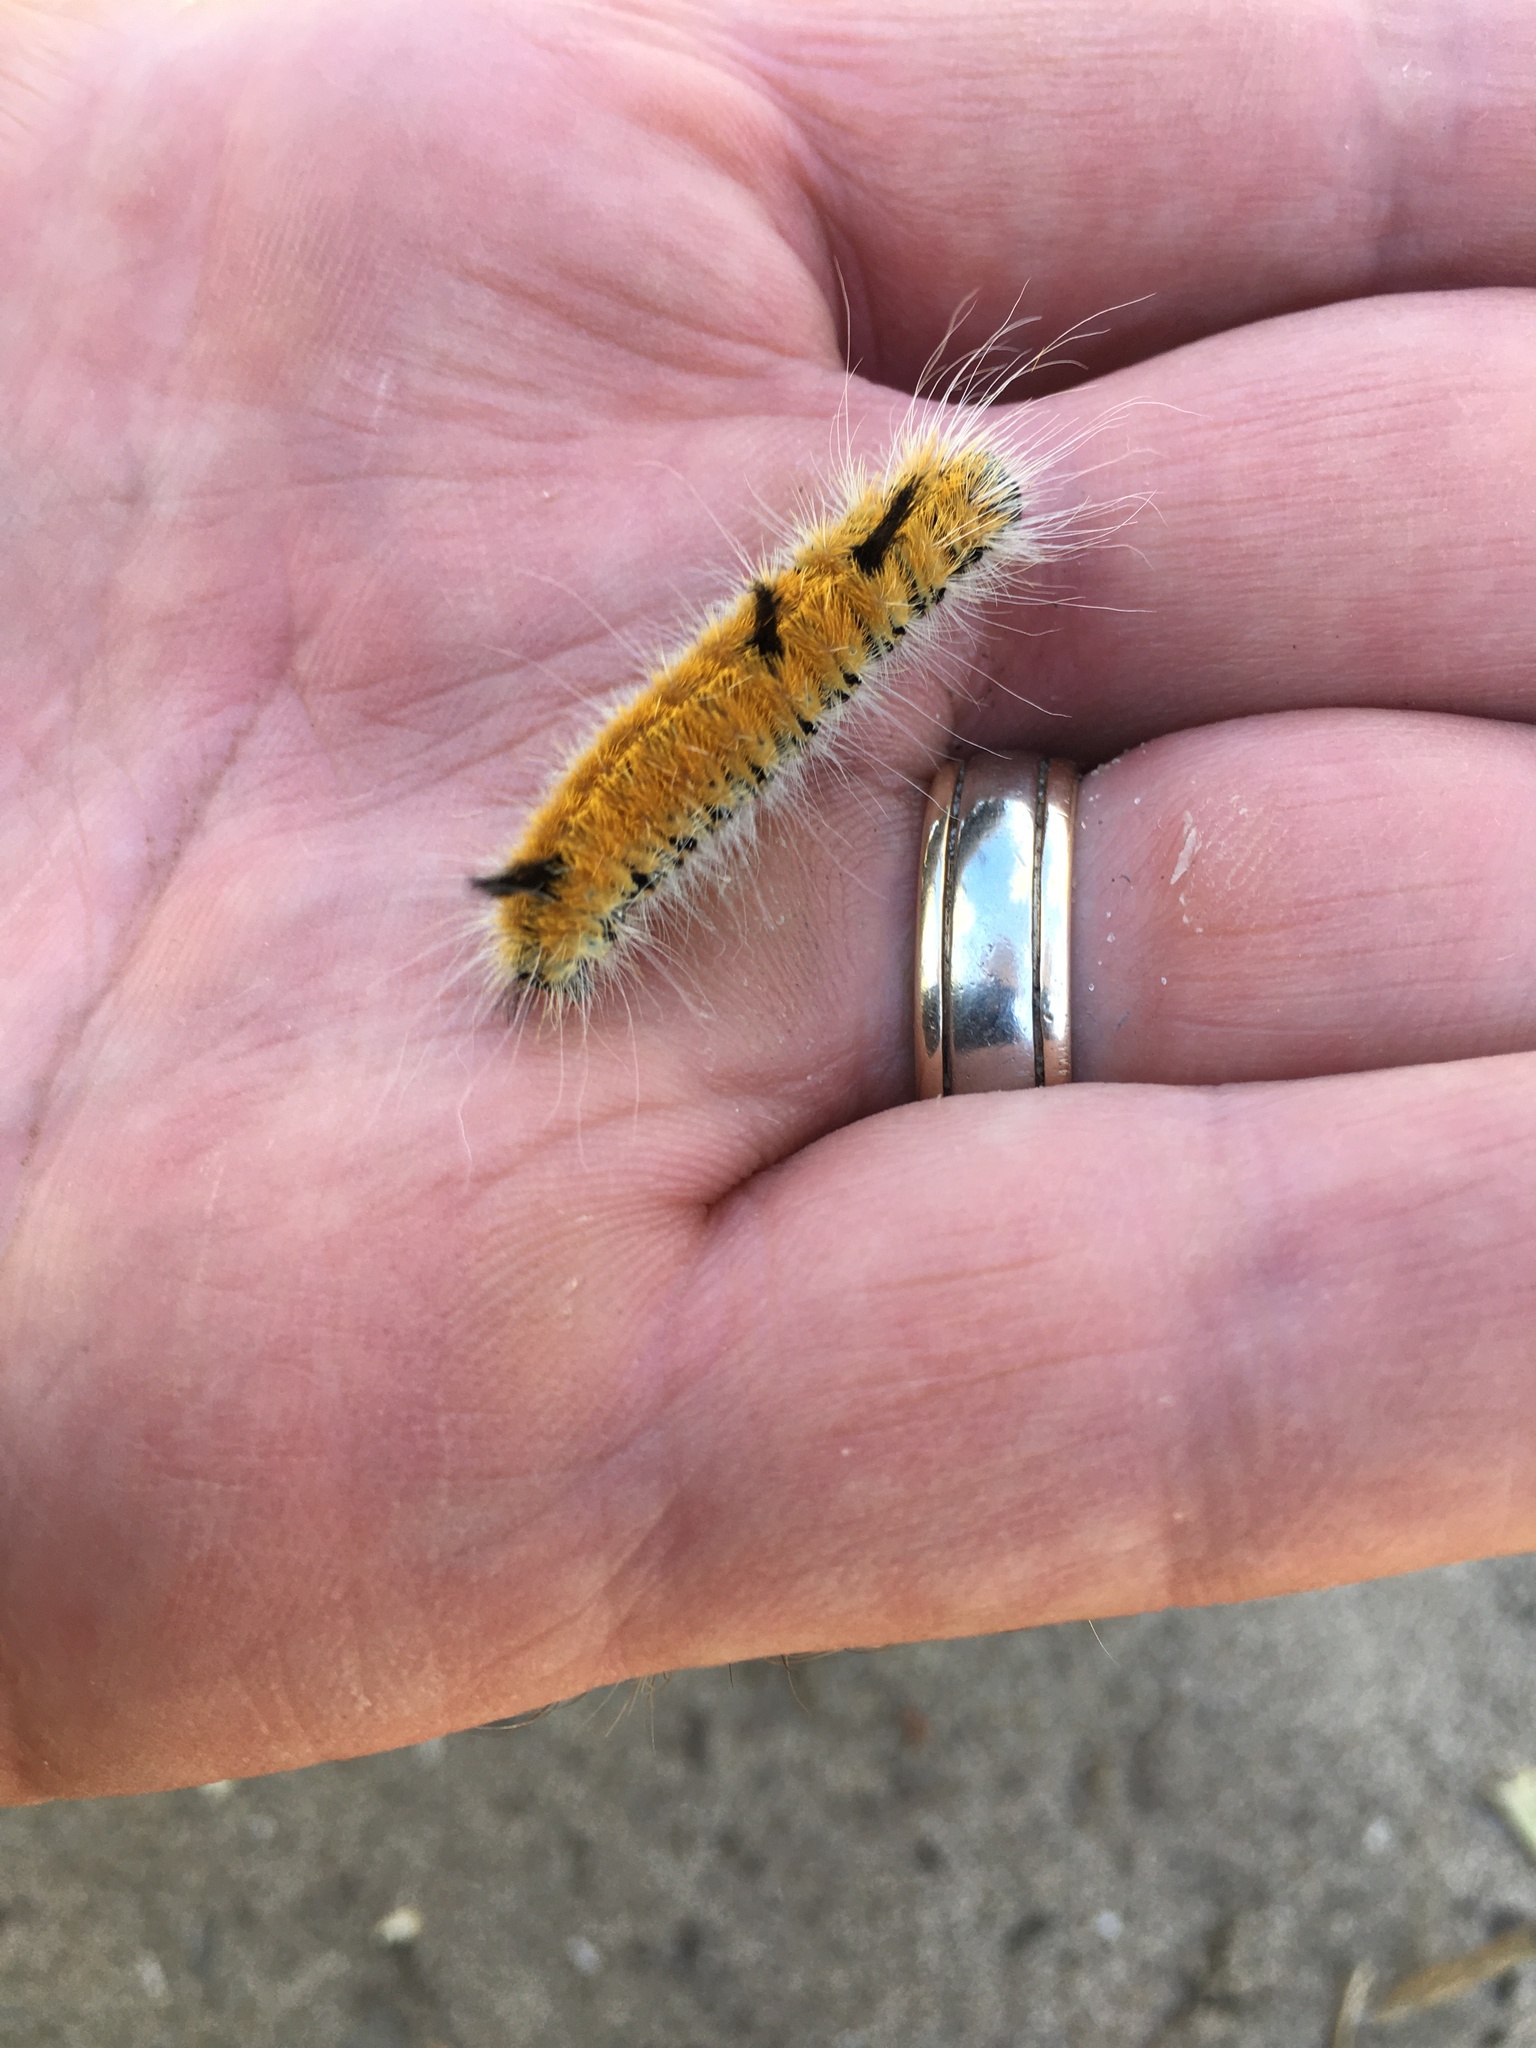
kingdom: Animalia
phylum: Arthropoda
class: Insecta
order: Lepidoptera
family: Noctuidae
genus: Acronicta
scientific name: Acronicta insita
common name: Large gray dagger
